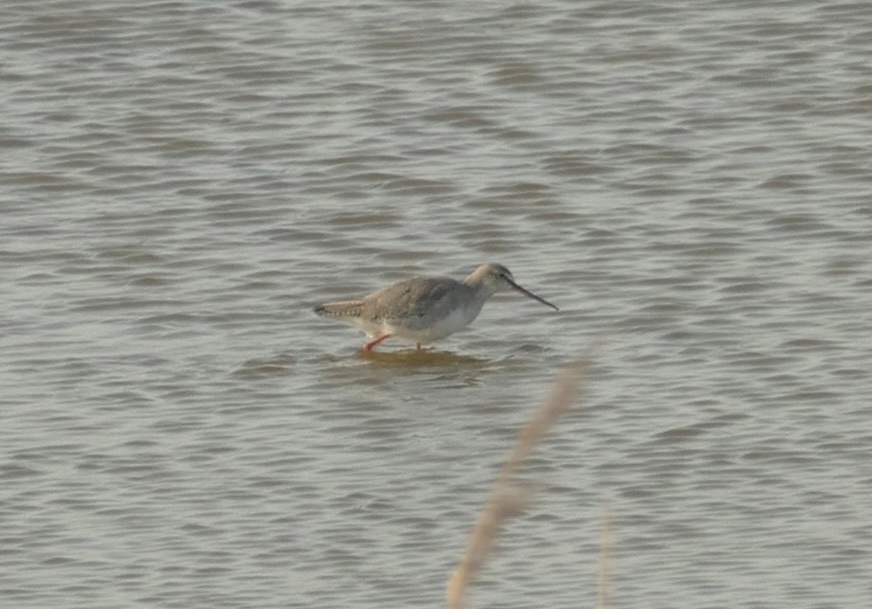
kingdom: Animalia
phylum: Chordata
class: Aves
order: Charadriiformes
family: Scolopacidae
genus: Tringa
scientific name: Tringa erythropus
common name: Spotted redshank
